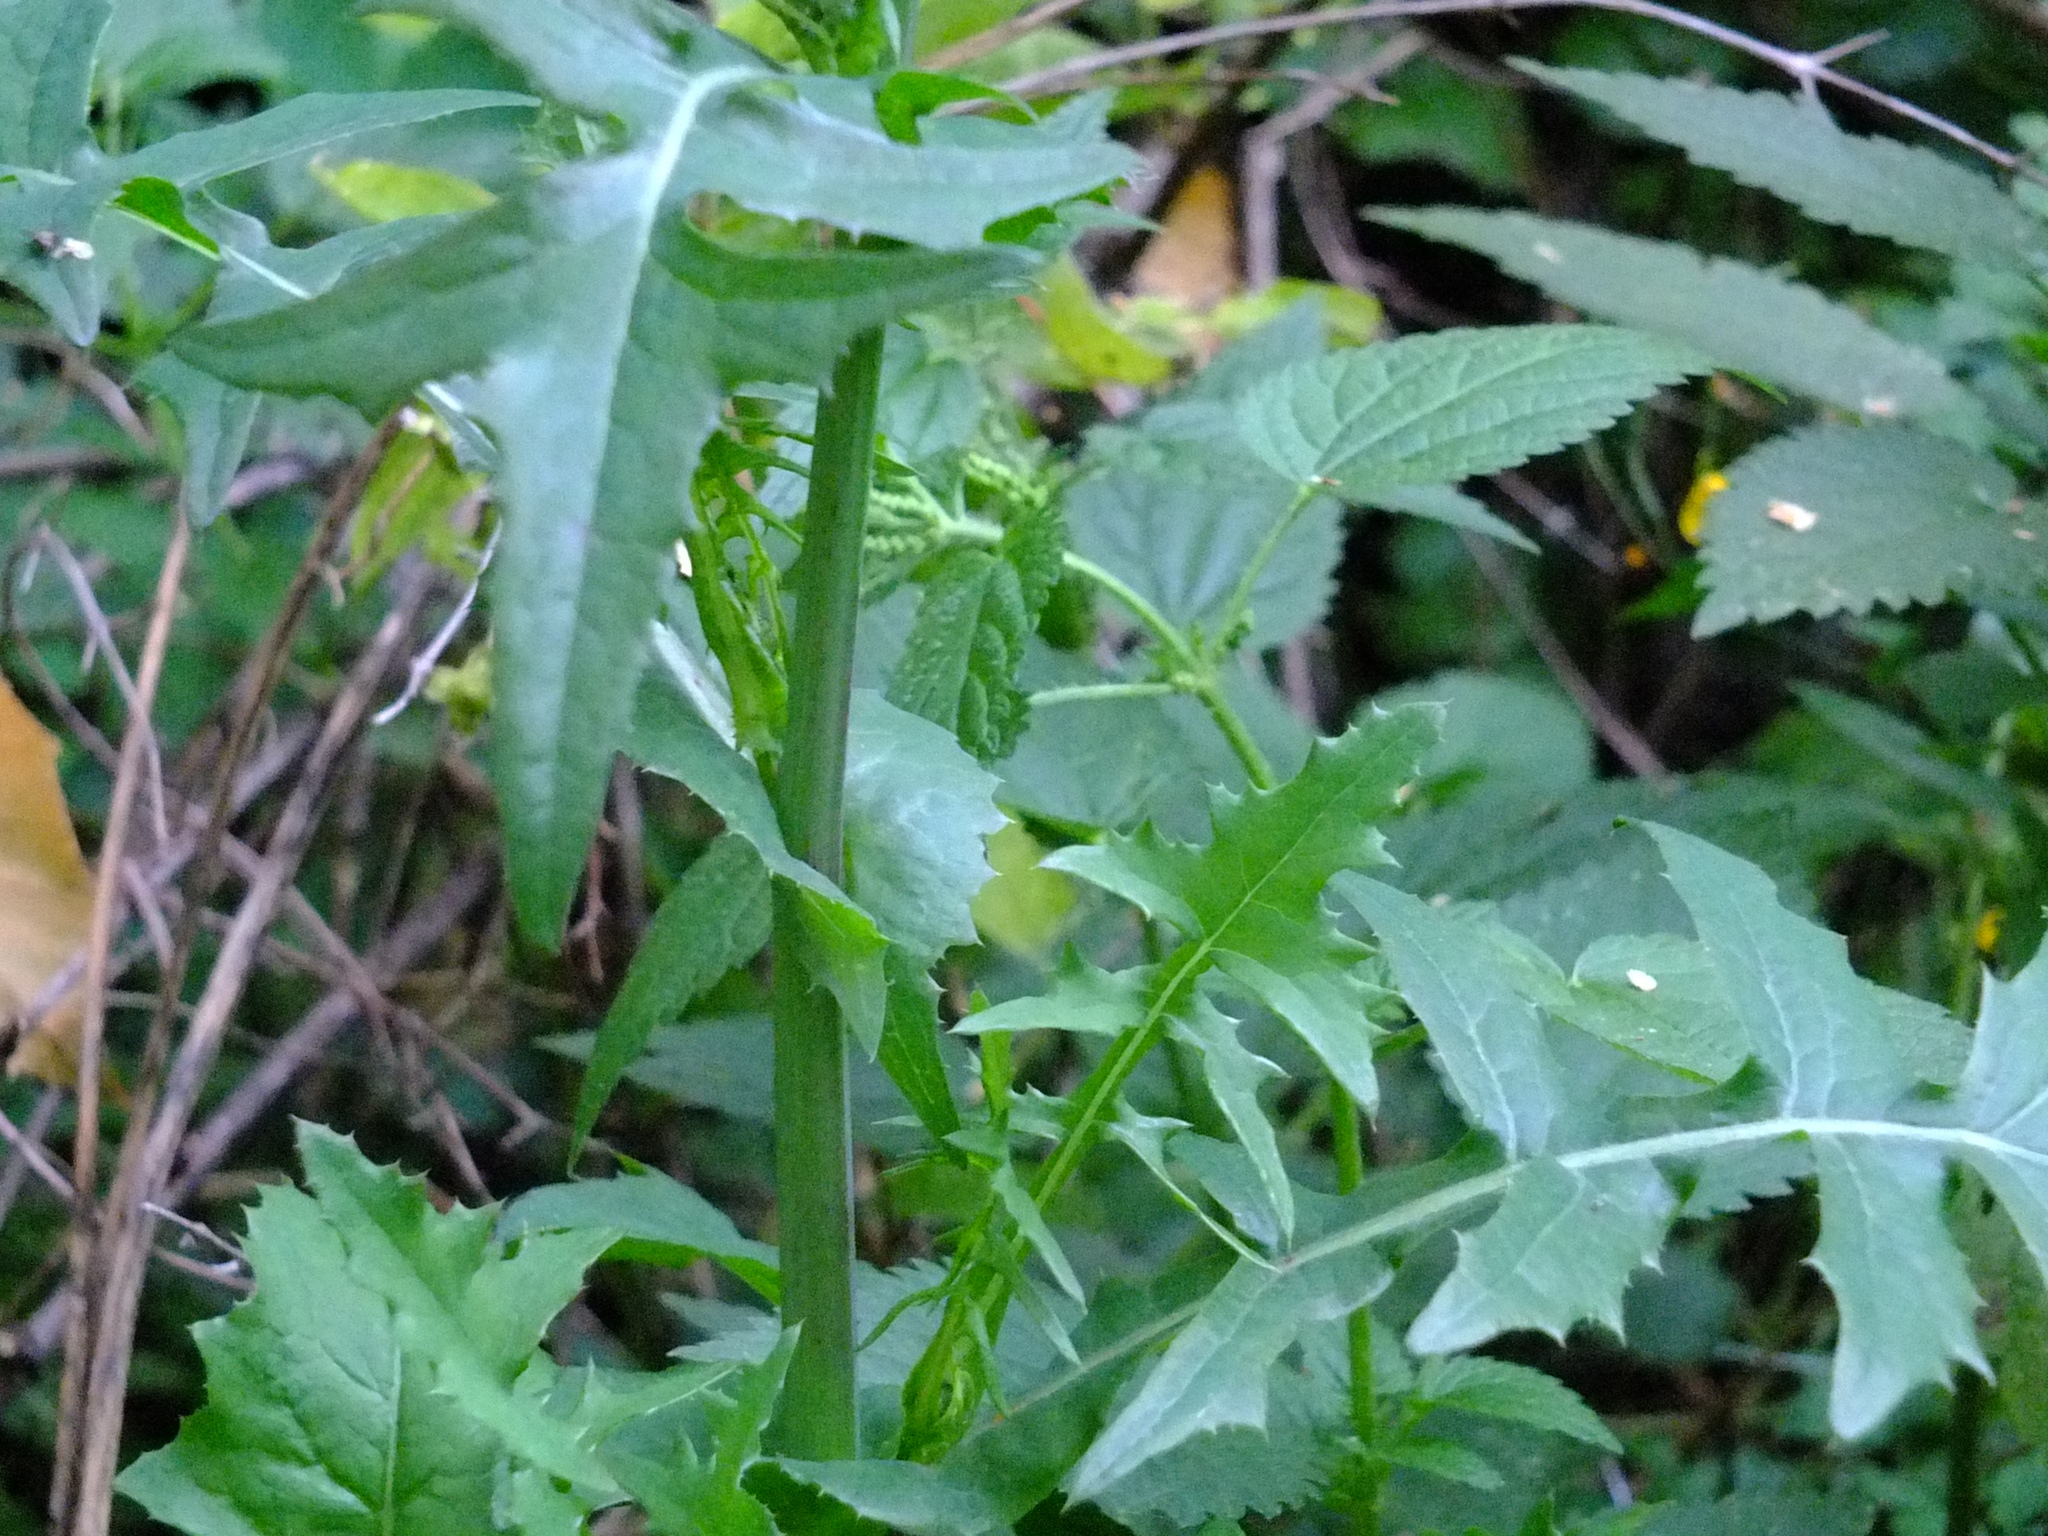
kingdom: Plantae
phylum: Tracheophyta
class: Magnoliopsida
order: Asterales
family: Asteraceae
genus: Sonchus
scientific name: Sonchus oleraceus
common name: Common sowthistle
